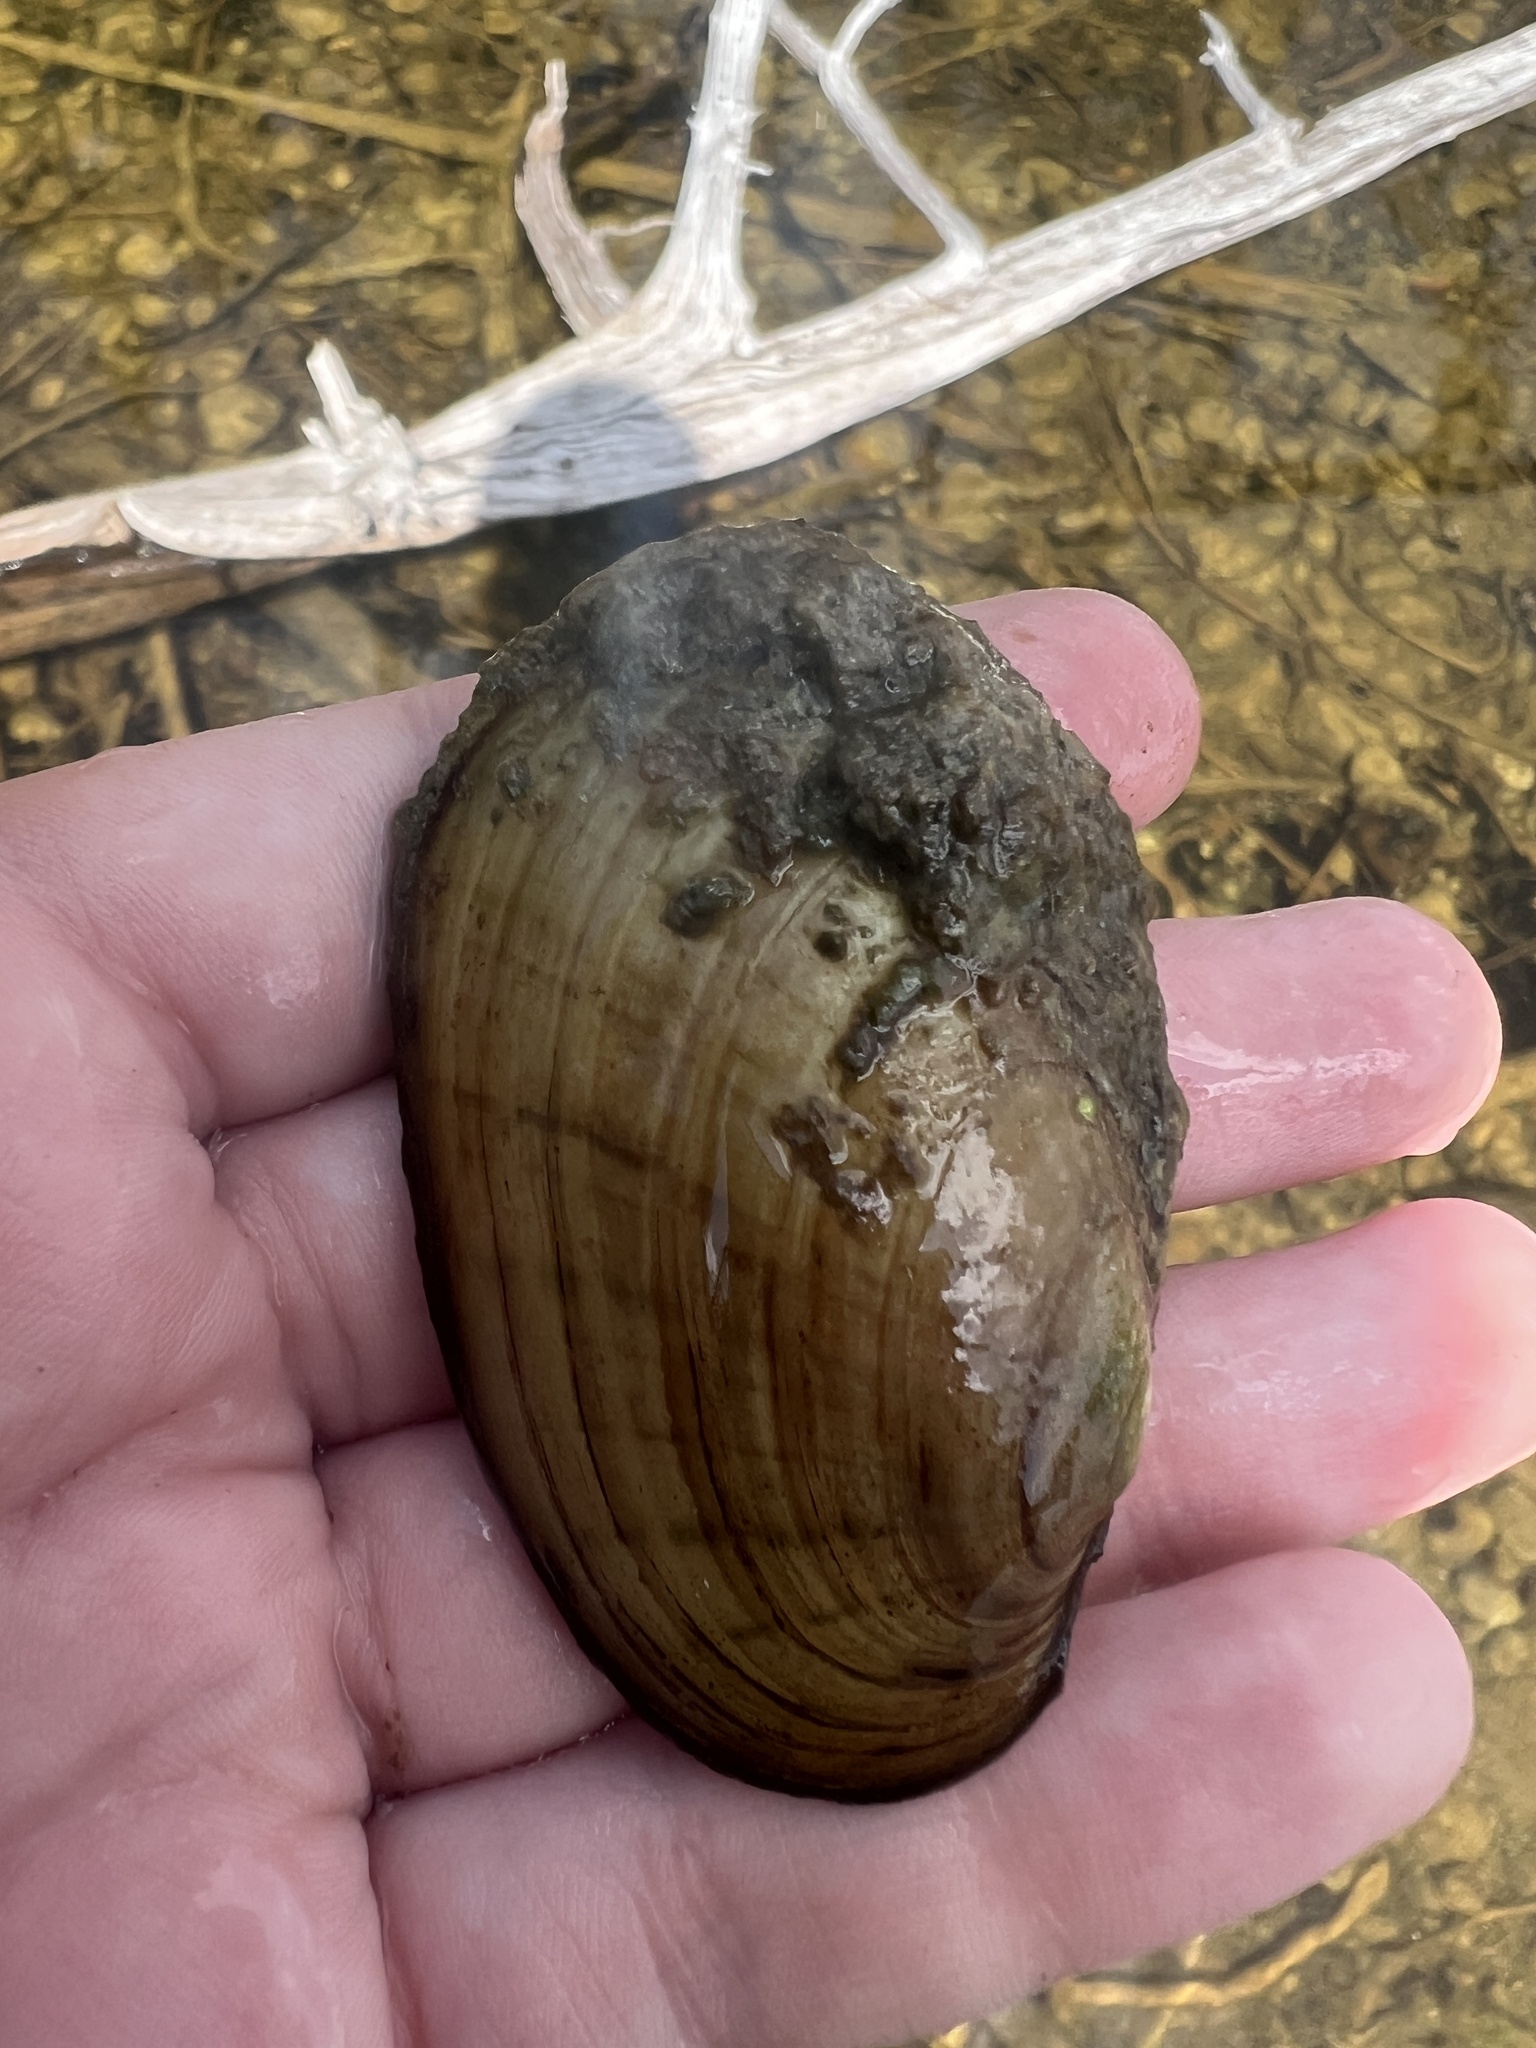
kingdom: Animalia
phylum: Mollusca
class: Bivalvia
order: Unionida
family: Unionidae
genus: Lampsilis
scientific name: Lampsilis siliquoidea
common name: Fatmucket
